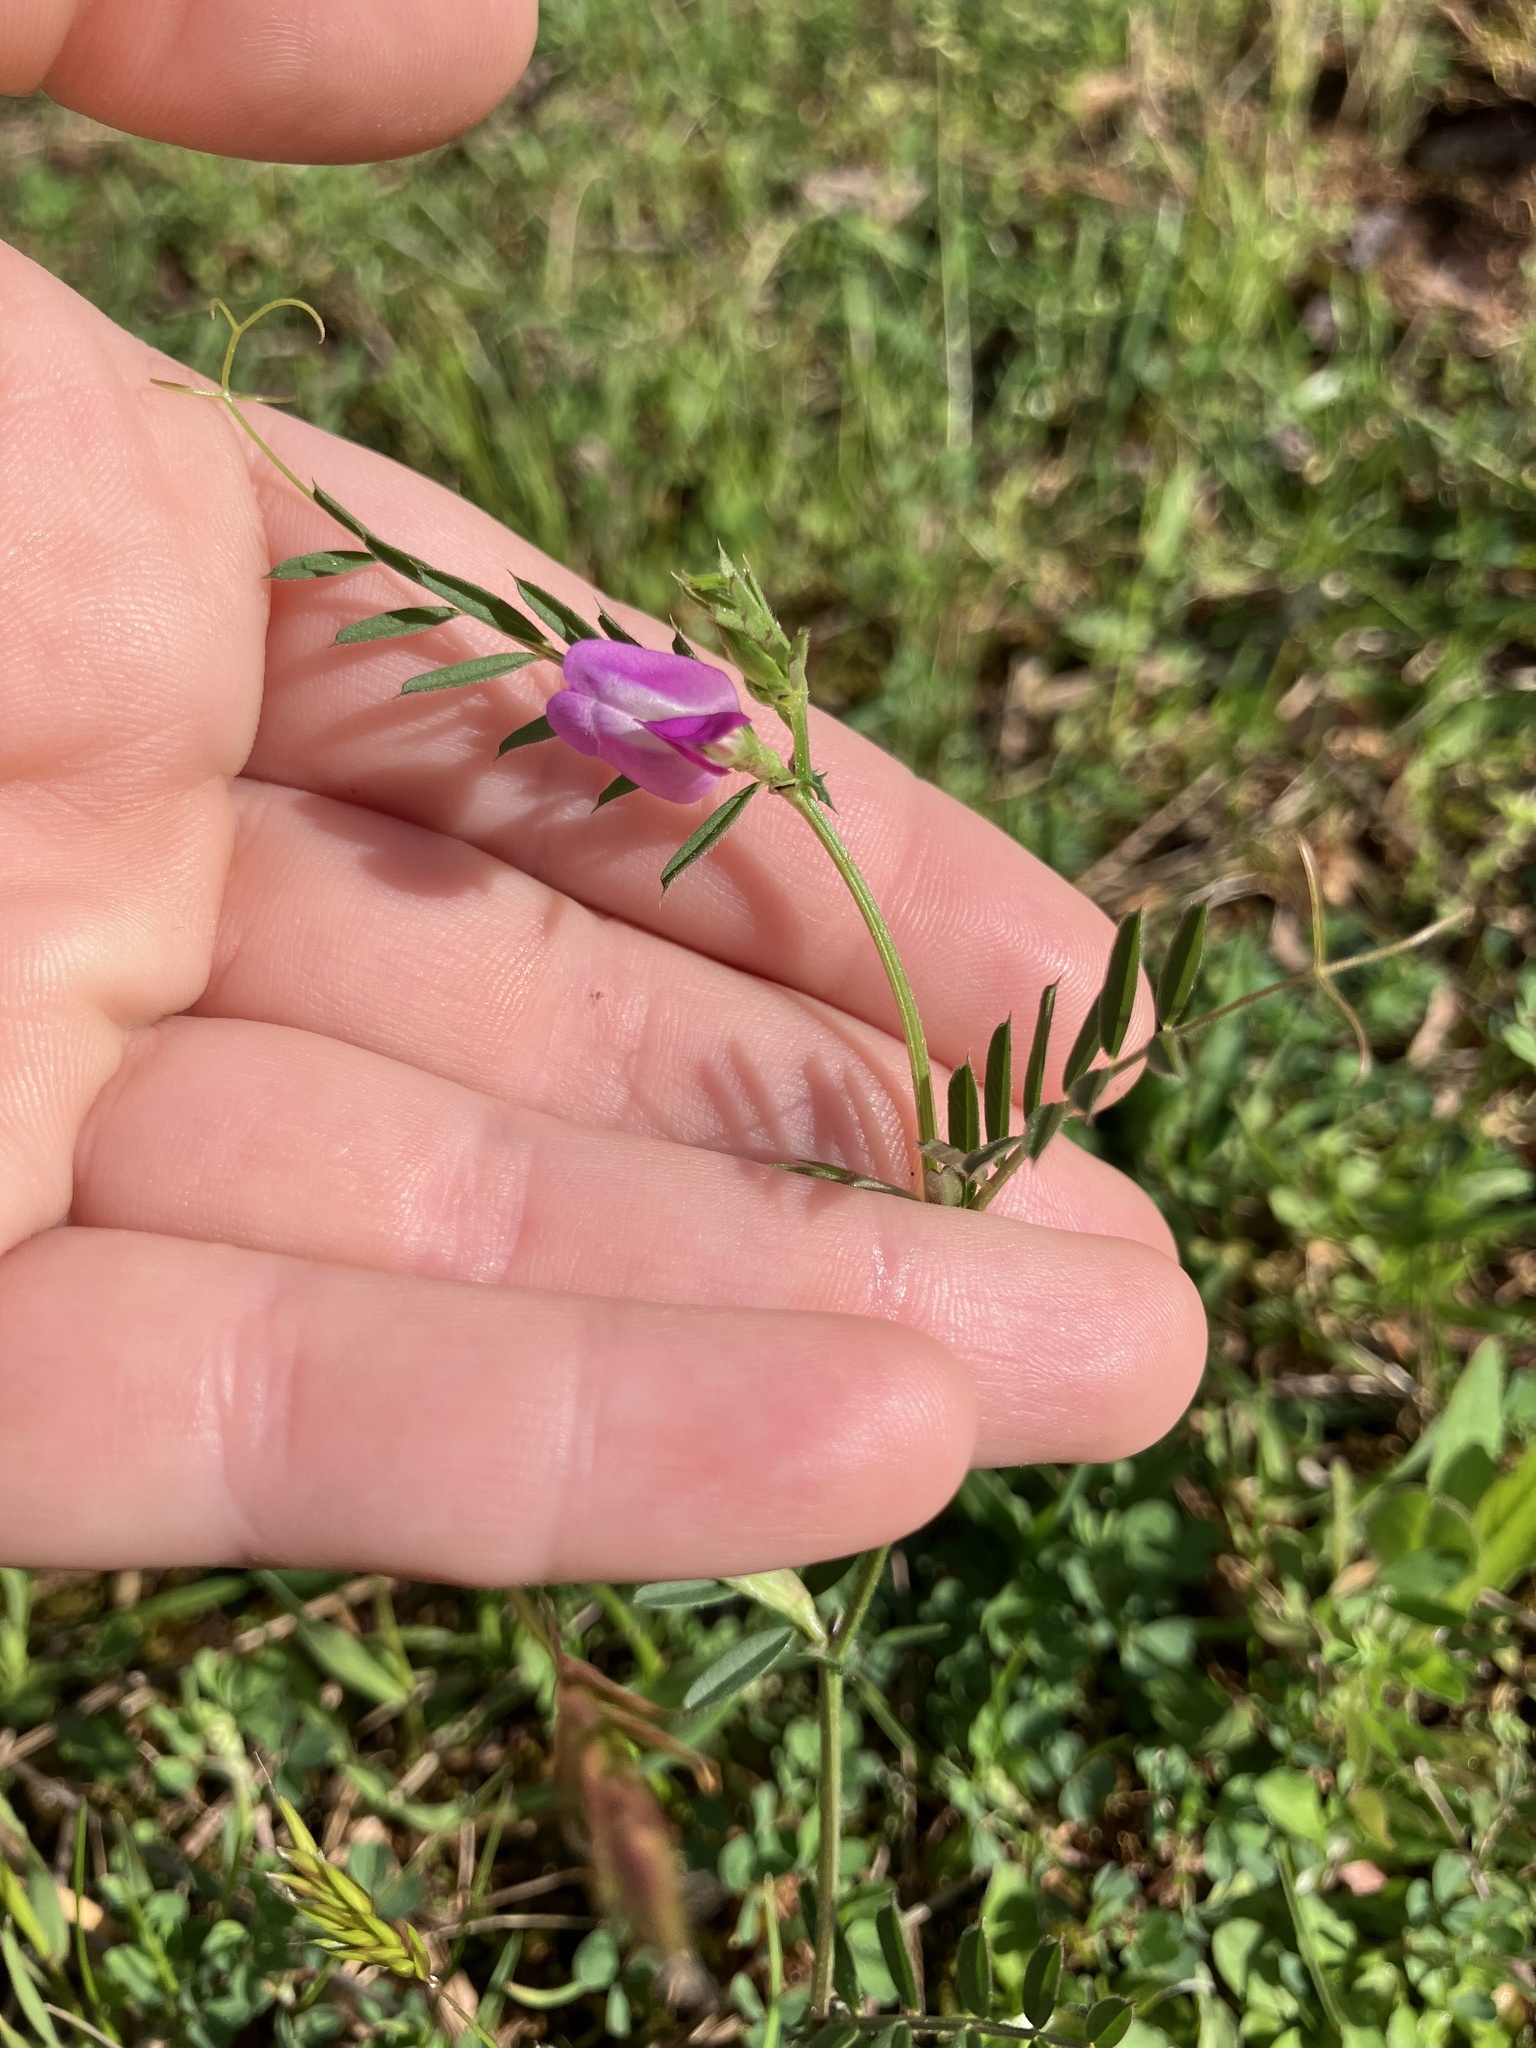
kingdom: Plantae
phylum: Tracheophyta
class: Magnoliopsida
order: Fabales
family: Fabaceae
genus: Vicia
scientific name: Vicia sativa
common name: Garden vetch
